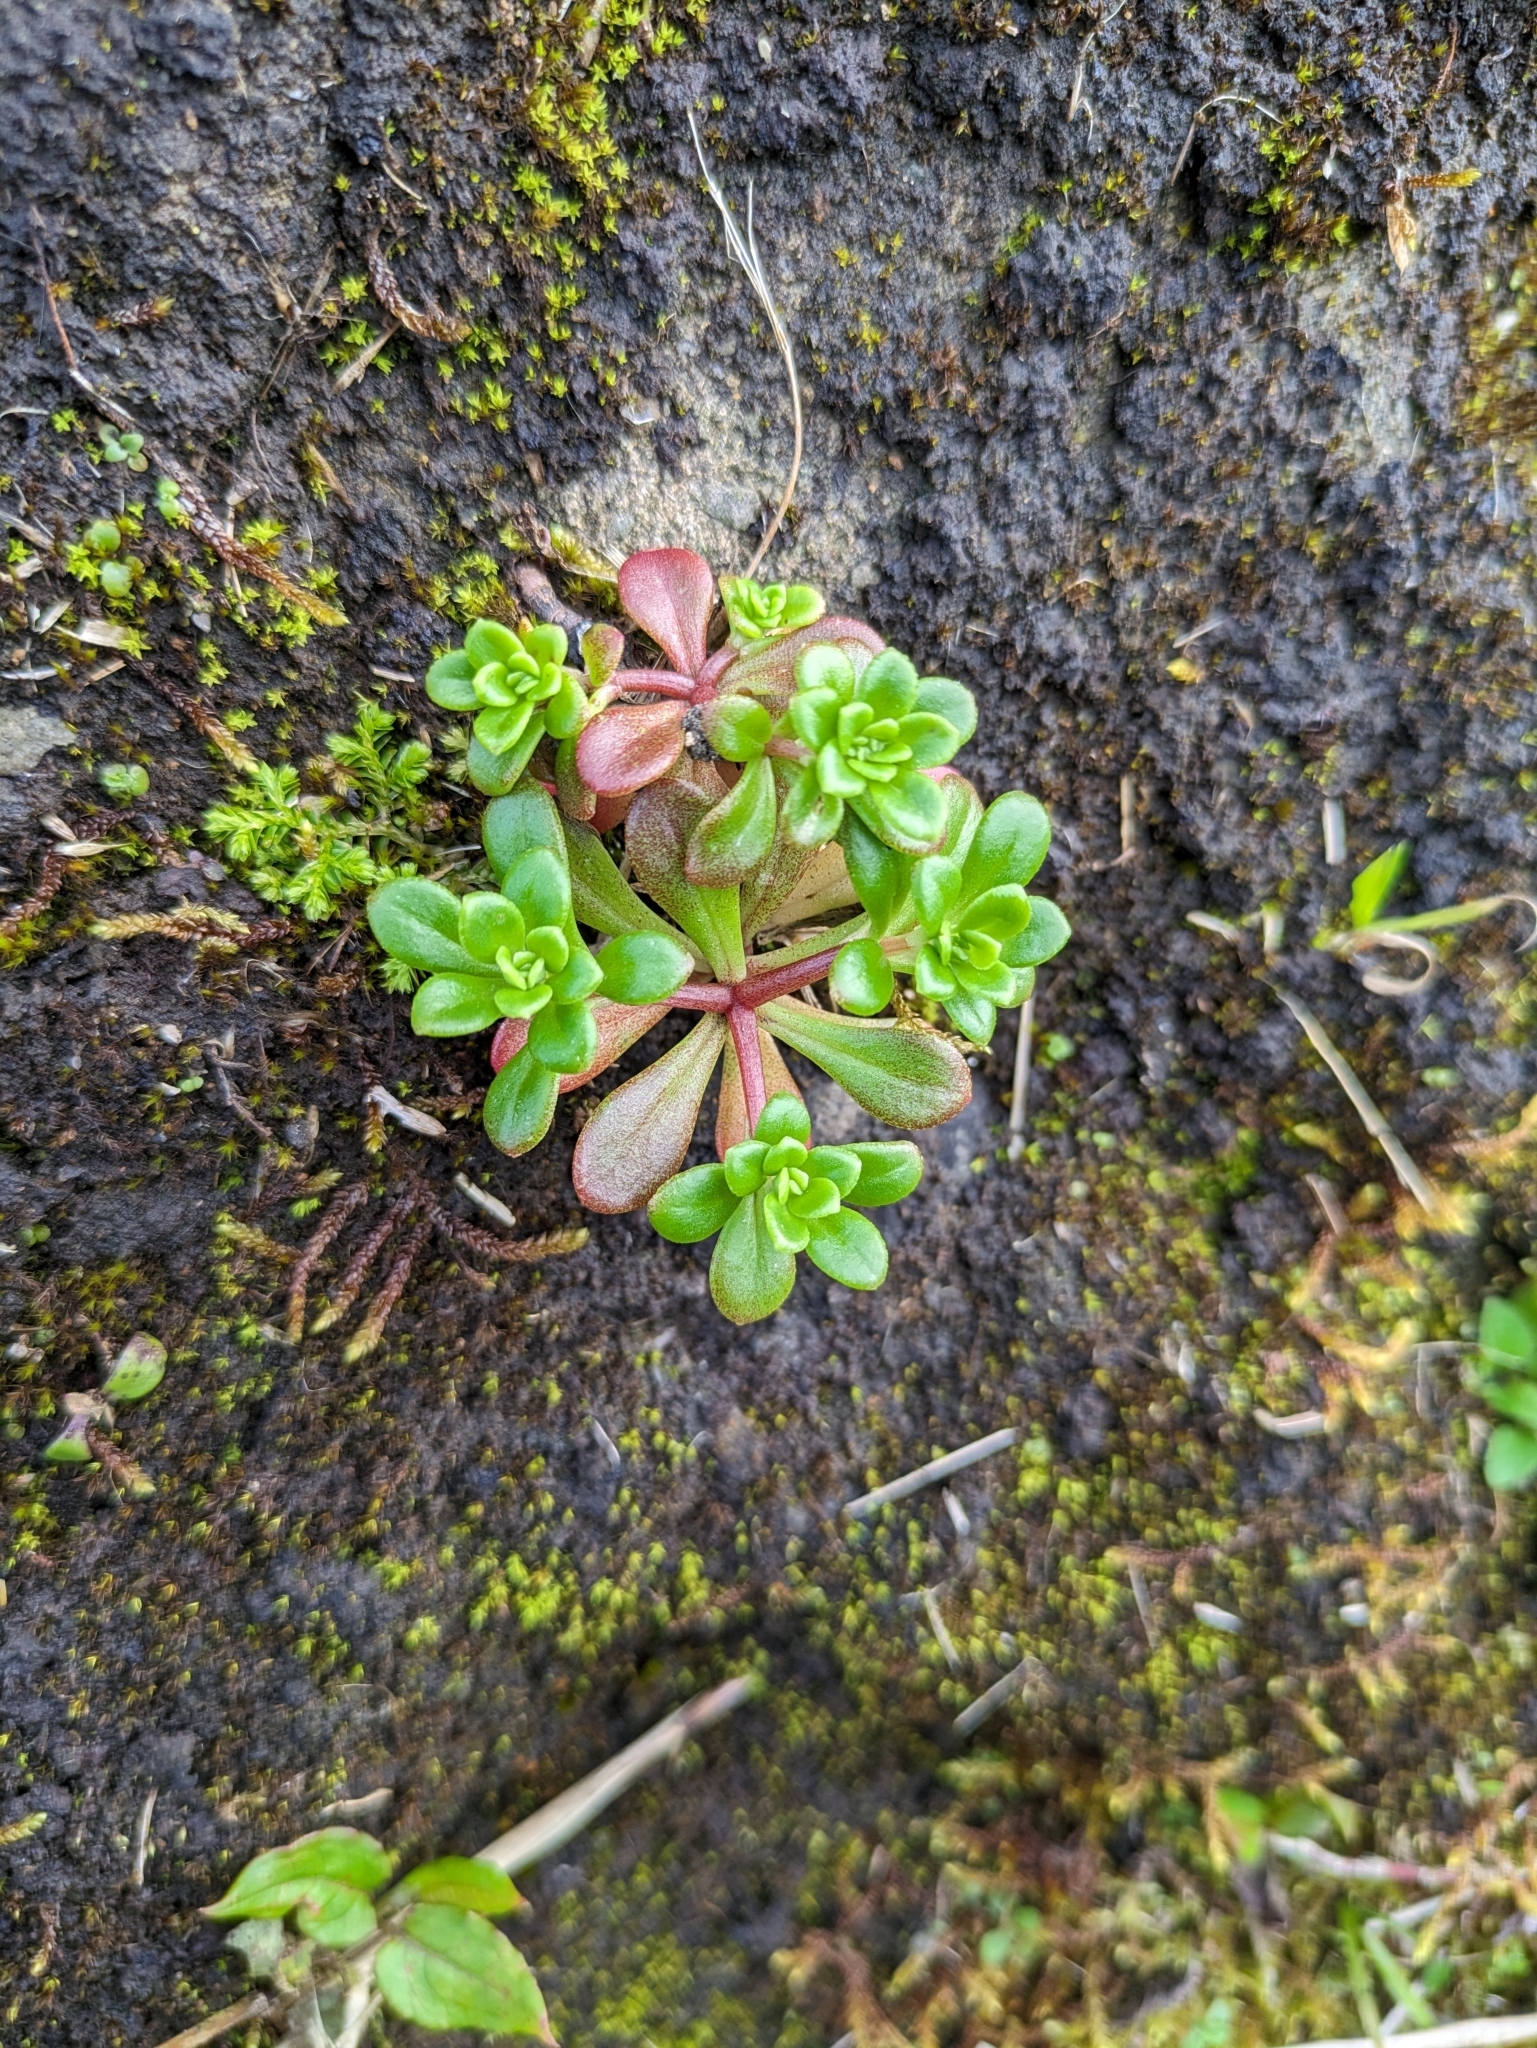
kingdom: Plantae
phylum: Tracheophyta
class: Magnoliopsida
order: Saxifragales
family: Crassulaceae
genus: Sedum
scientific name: Sedum formosanum
